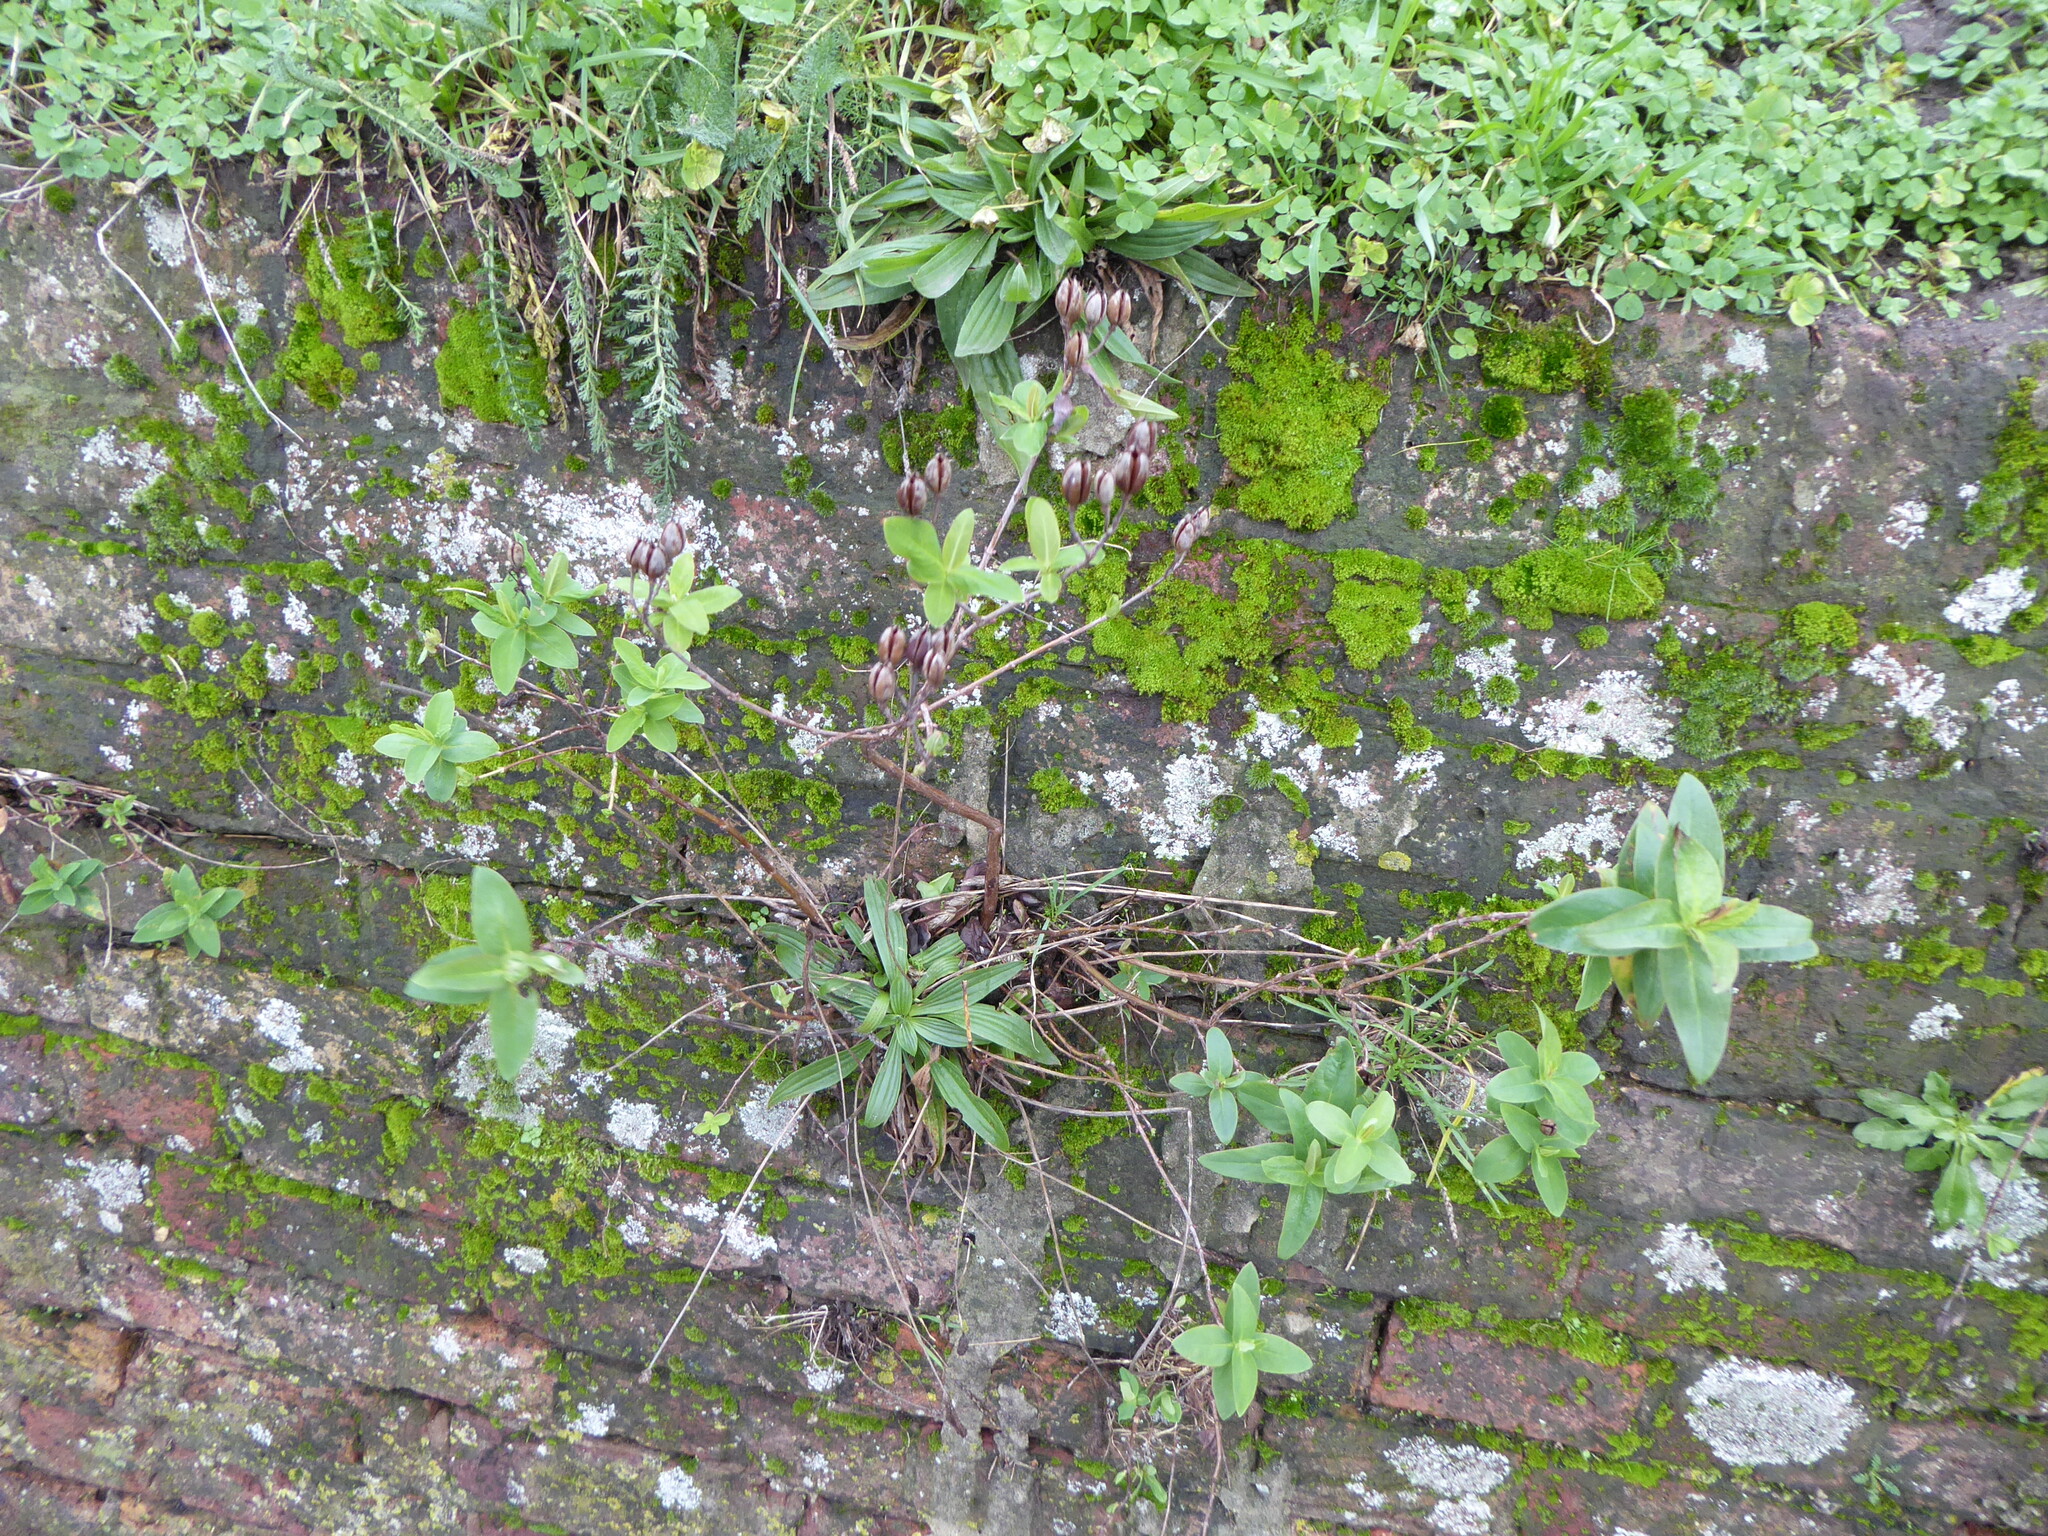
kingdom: Plantae
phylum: Tracheophyta
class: Magnoliopsida
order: Malpighiales
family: Hypericaceae
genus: Hypericum
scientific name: Hypericum hircinum
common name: Stinking tutsan
